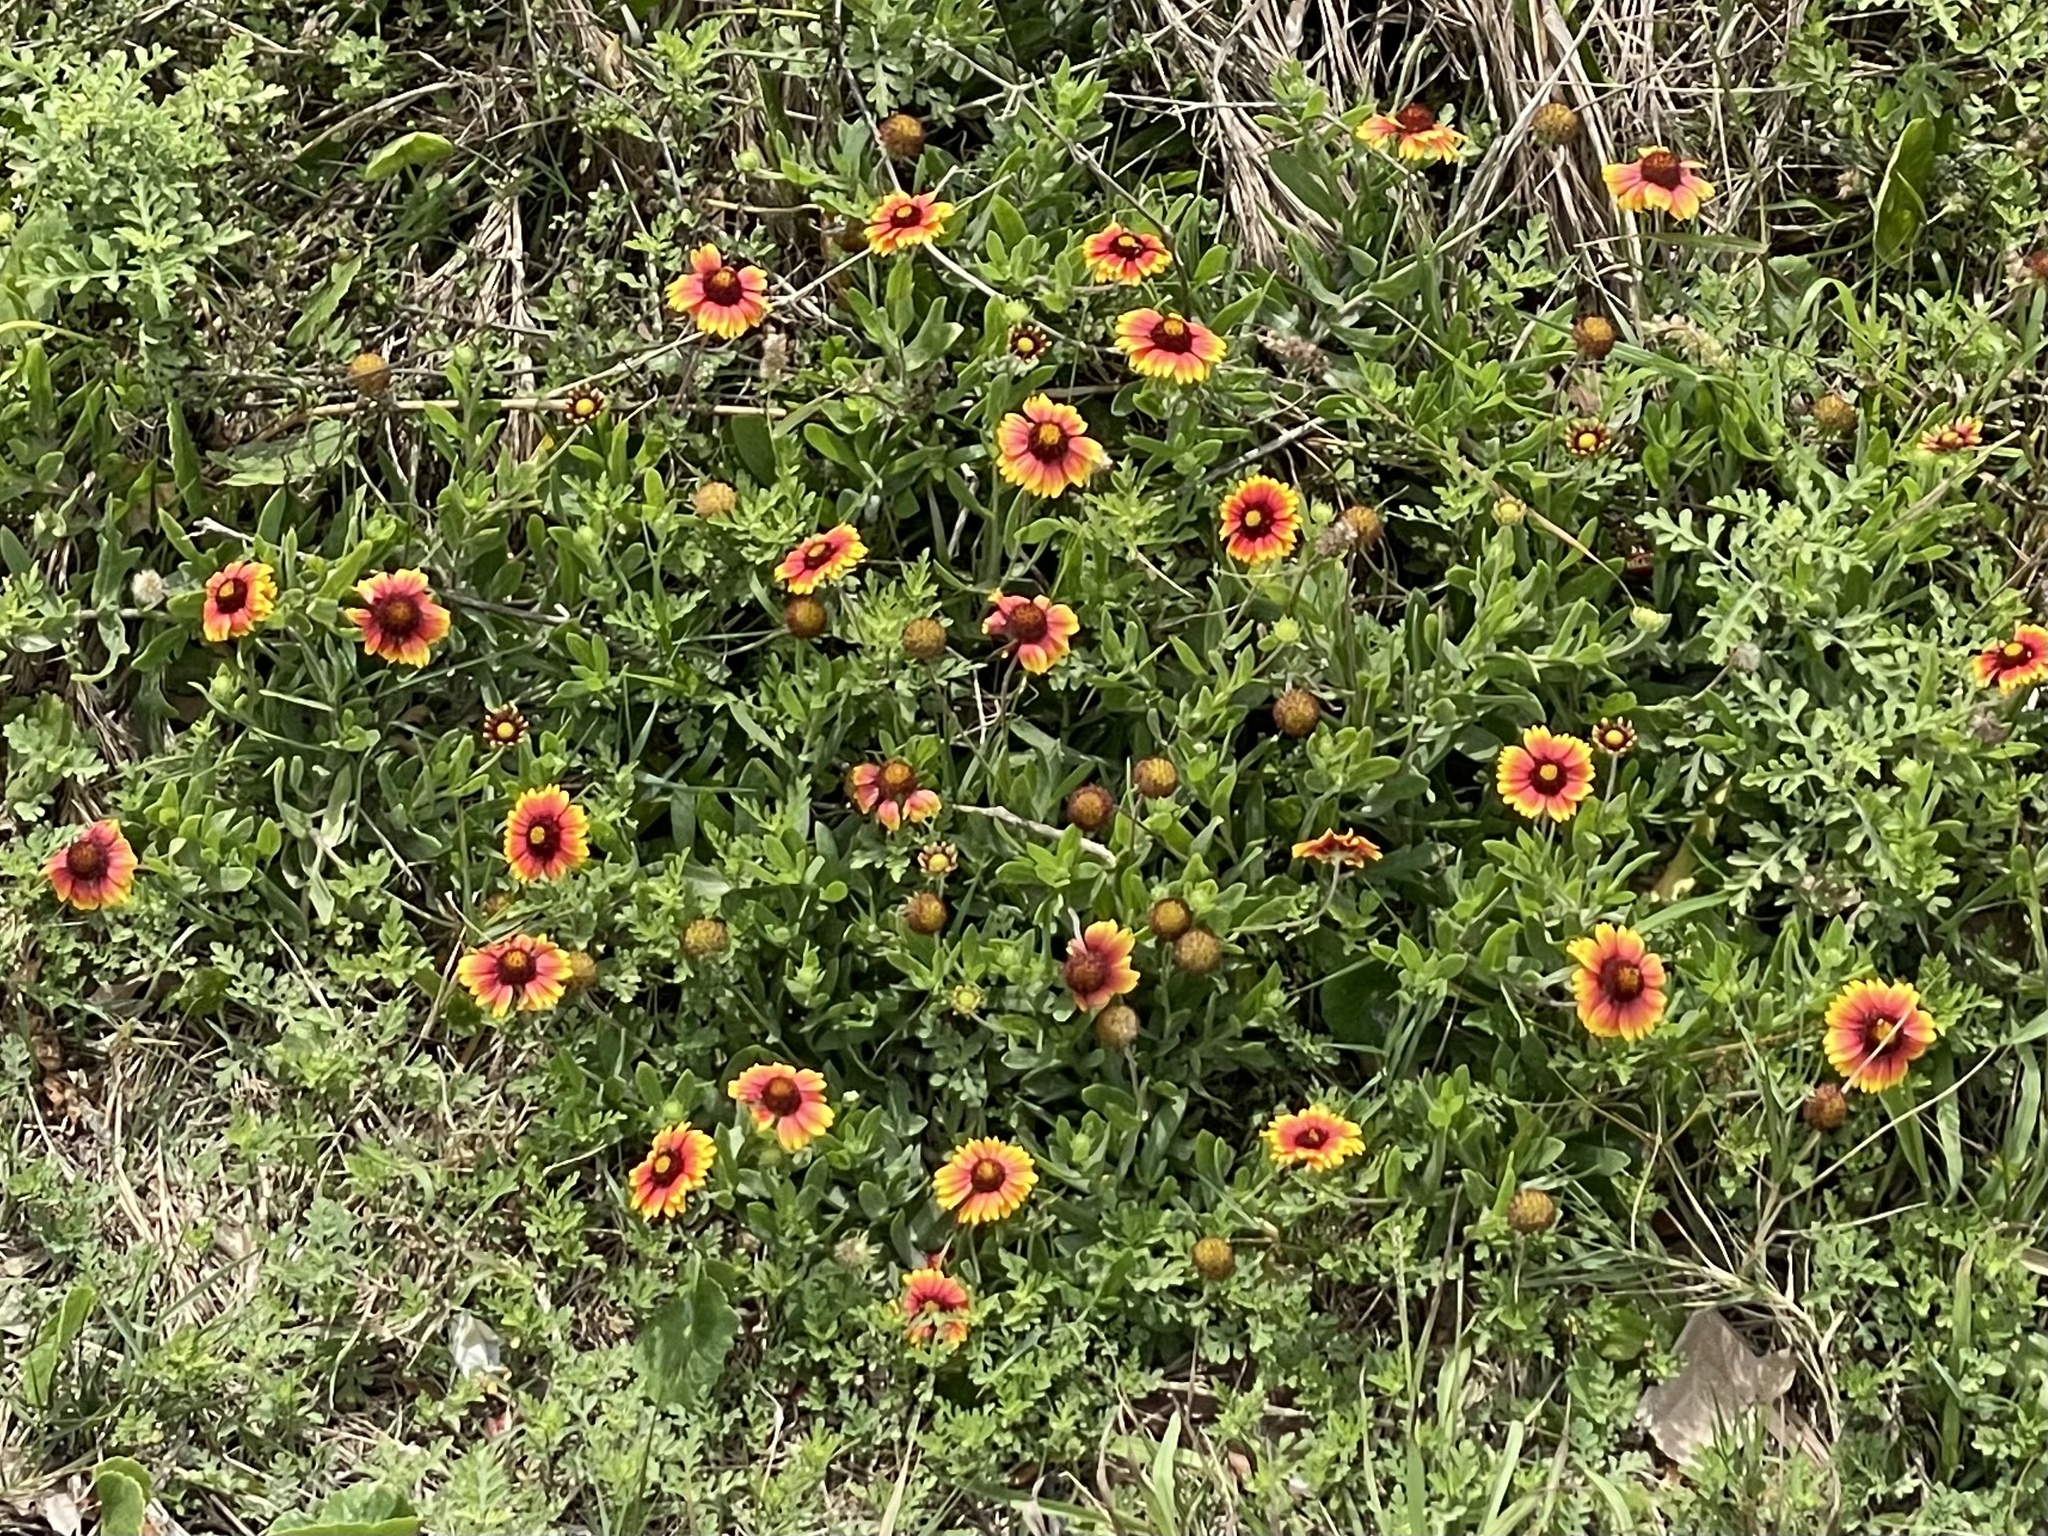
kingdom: Plantae
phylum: Tracheophyta
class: Magnoliopsida
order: Asterales
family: Asteraceae
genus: Gaillardia
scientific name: Gaillardia pulchella
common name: Firewheel
